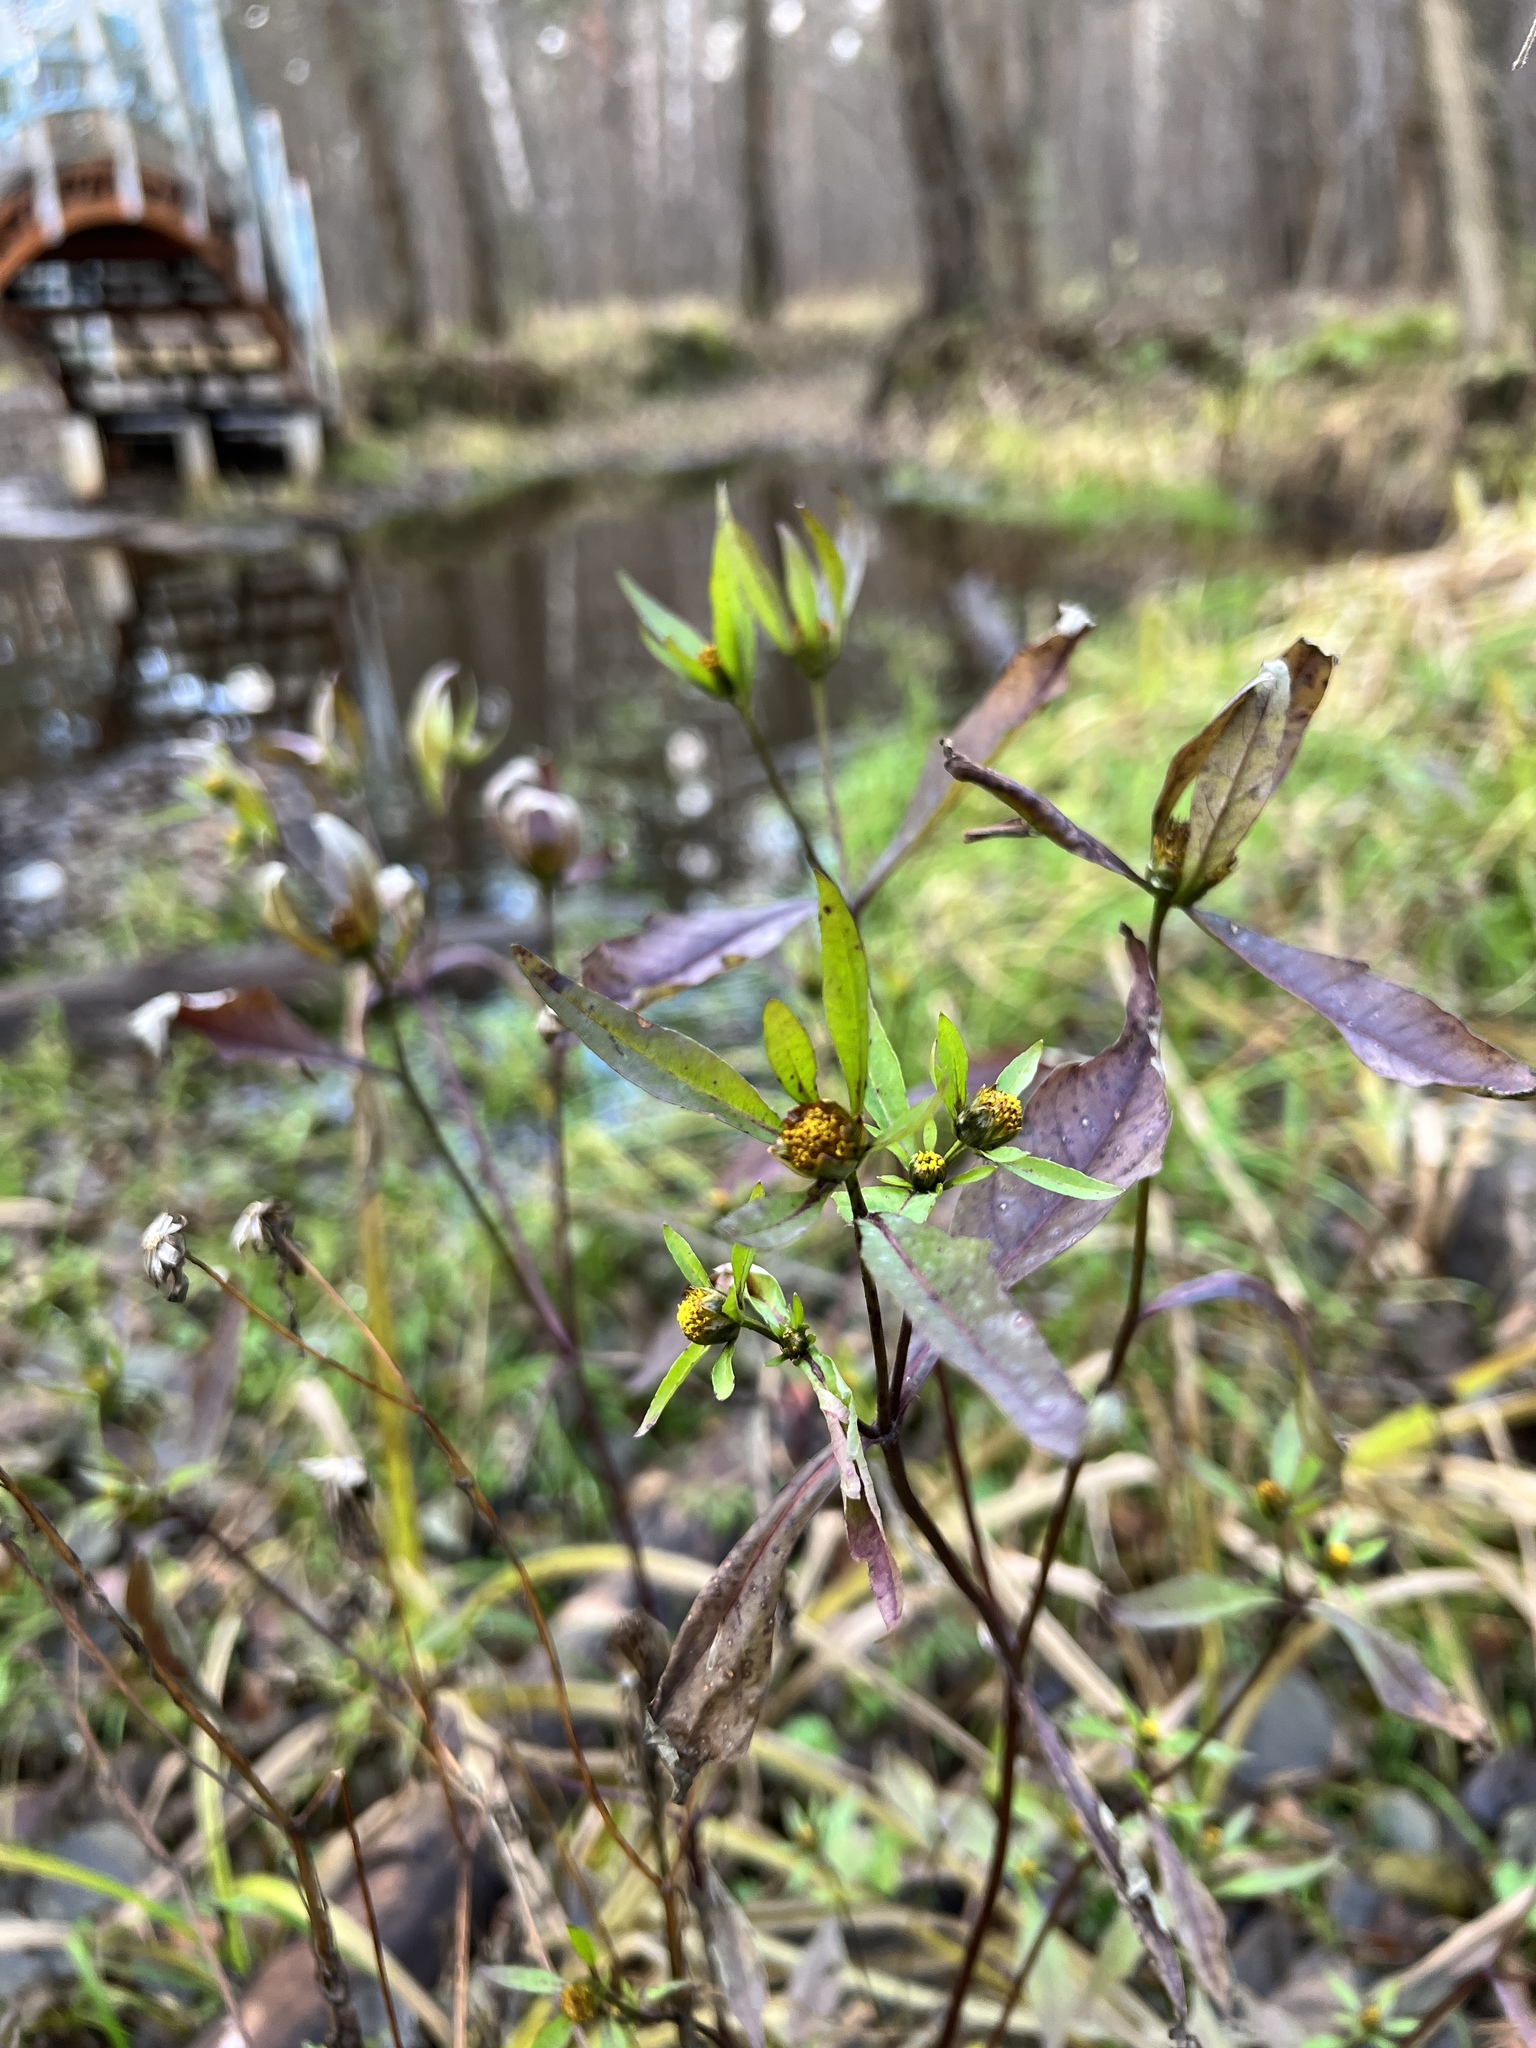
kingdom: Plantae
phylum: Tracheophyta
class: Magnoliopsida
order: Asterales
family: Asteraceae
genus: Bidens
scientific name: Bidens frondosa
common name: Beggarticks
